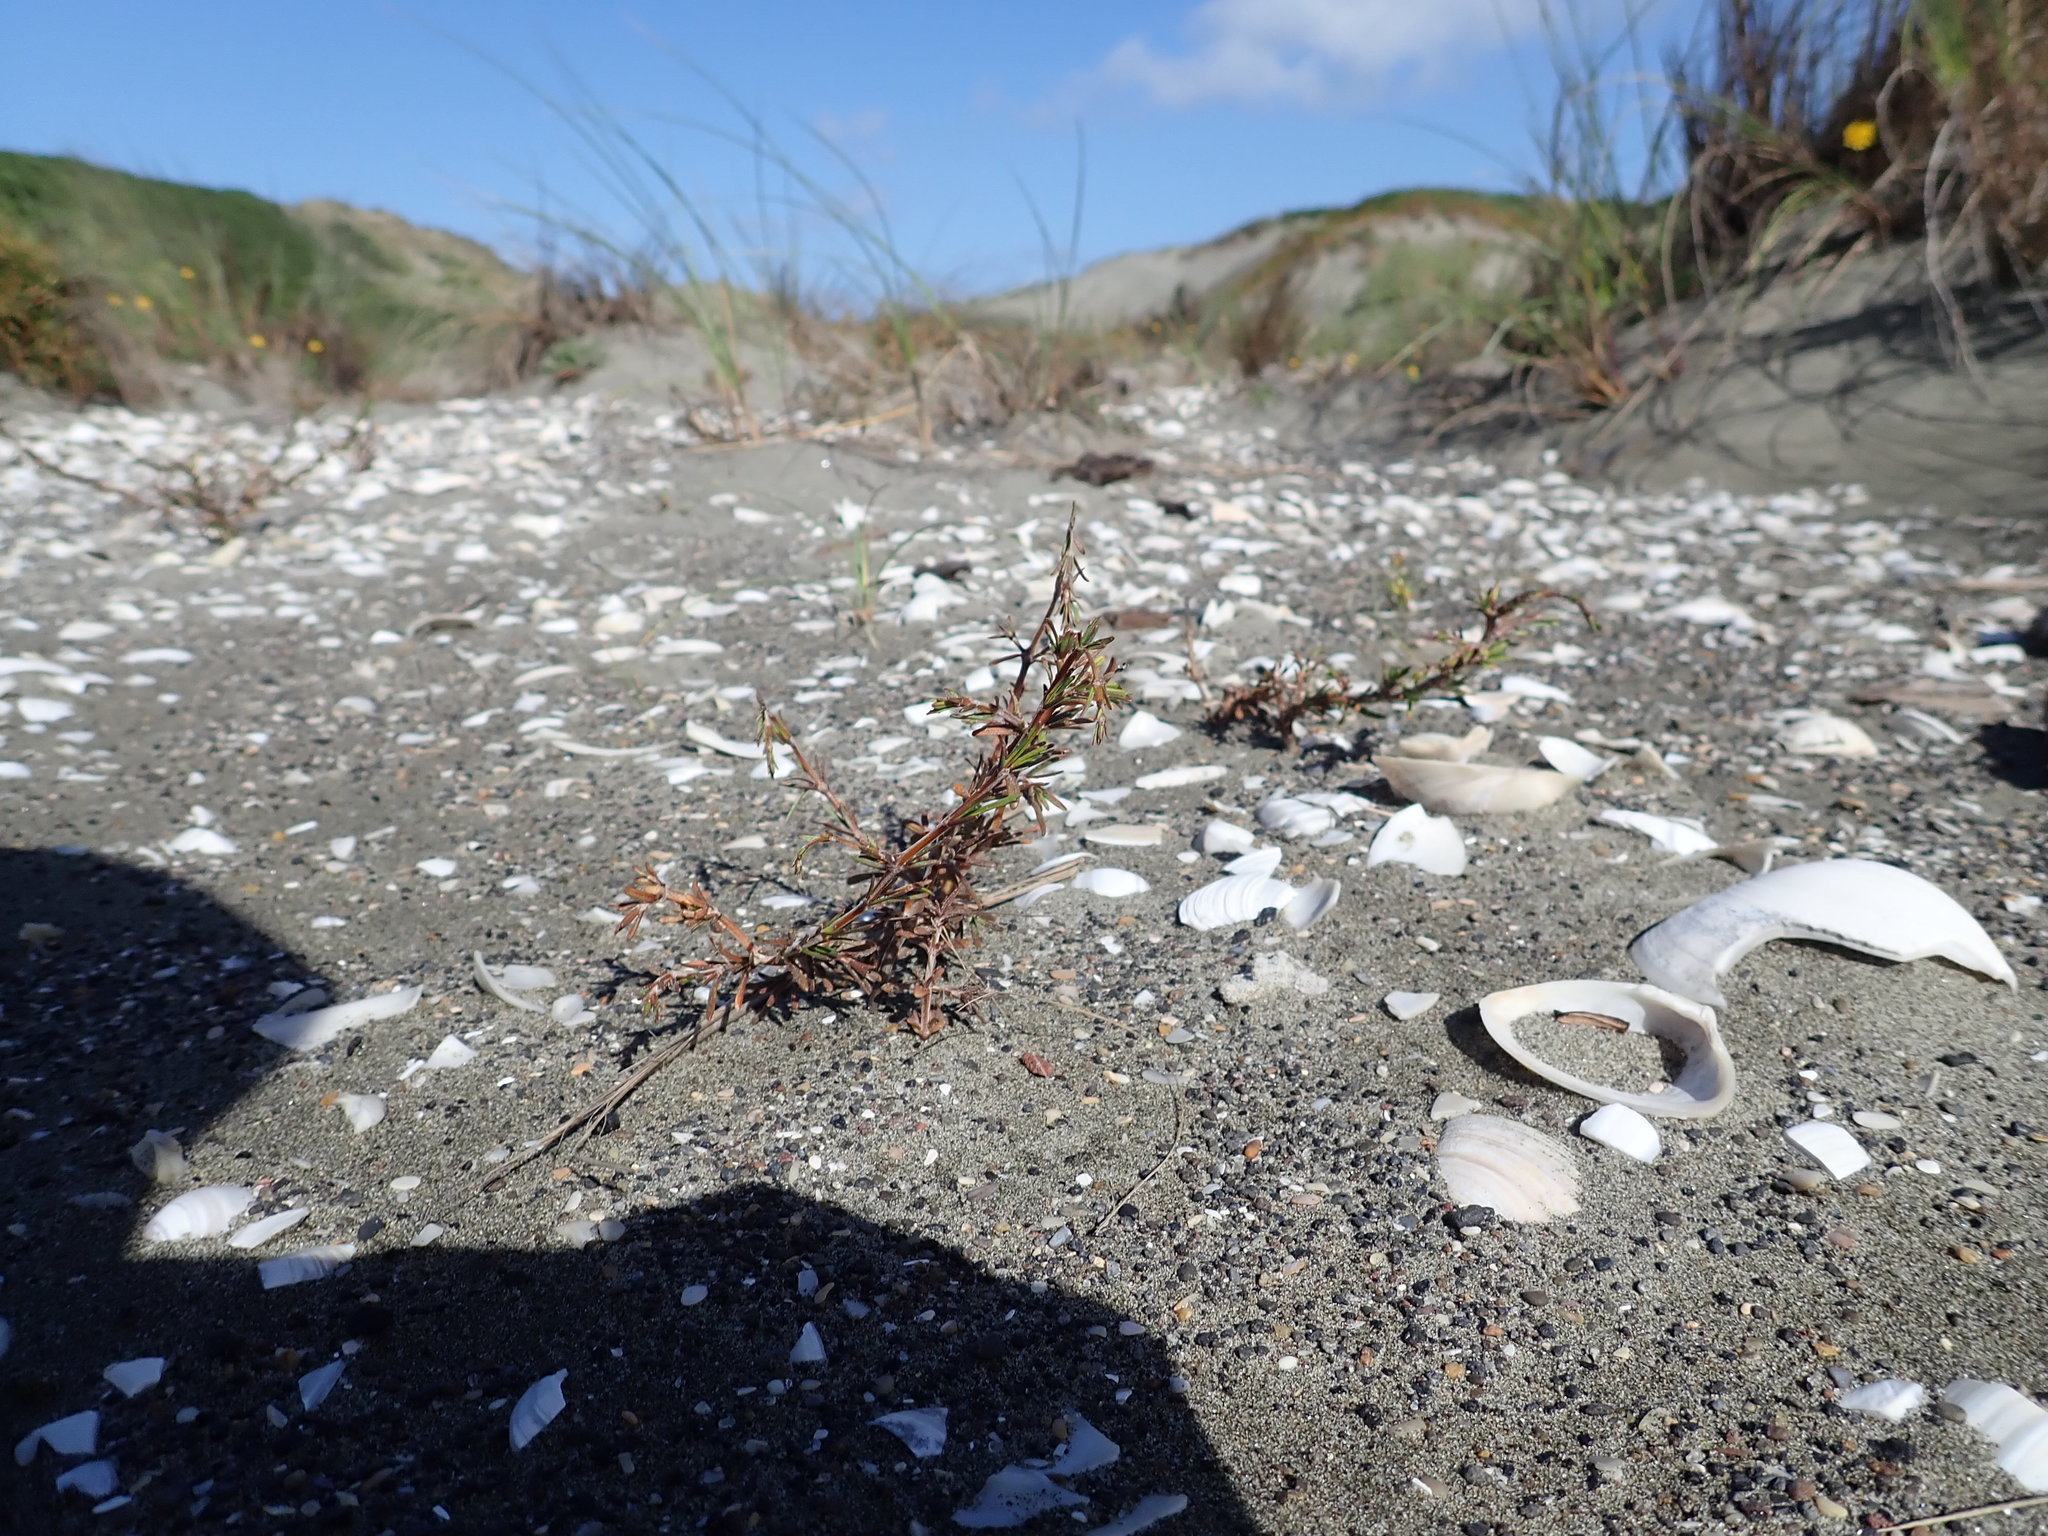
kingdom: Plantae
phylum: Tracheophyta
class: Magnoliopsida
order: Gentianales
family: Rubiaceae
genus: Coprosma
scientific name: Coprosma acerosa
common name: Sand coprosma
